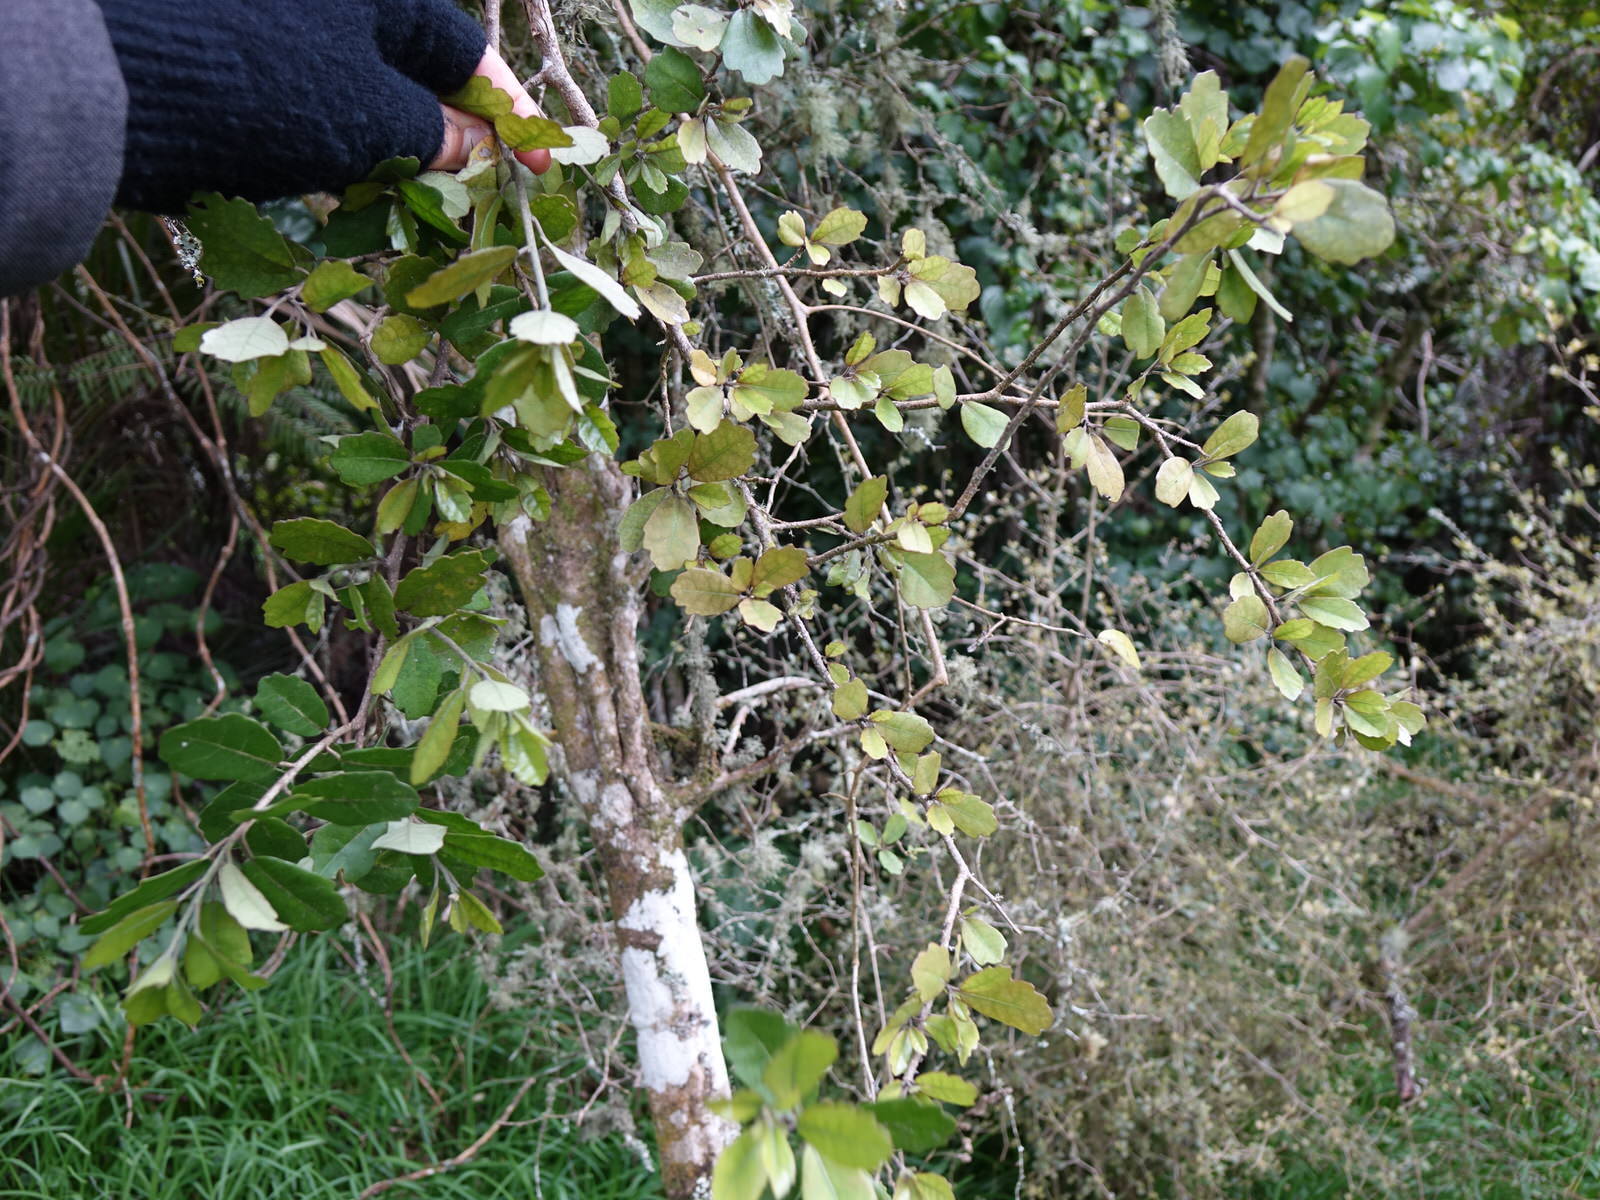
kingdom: Plantae
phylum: Tracheophyta
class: Magnoliopsida
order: Apiales
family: Pennantiaceae
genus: Pennantia
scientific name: Pennantia corymbosa
